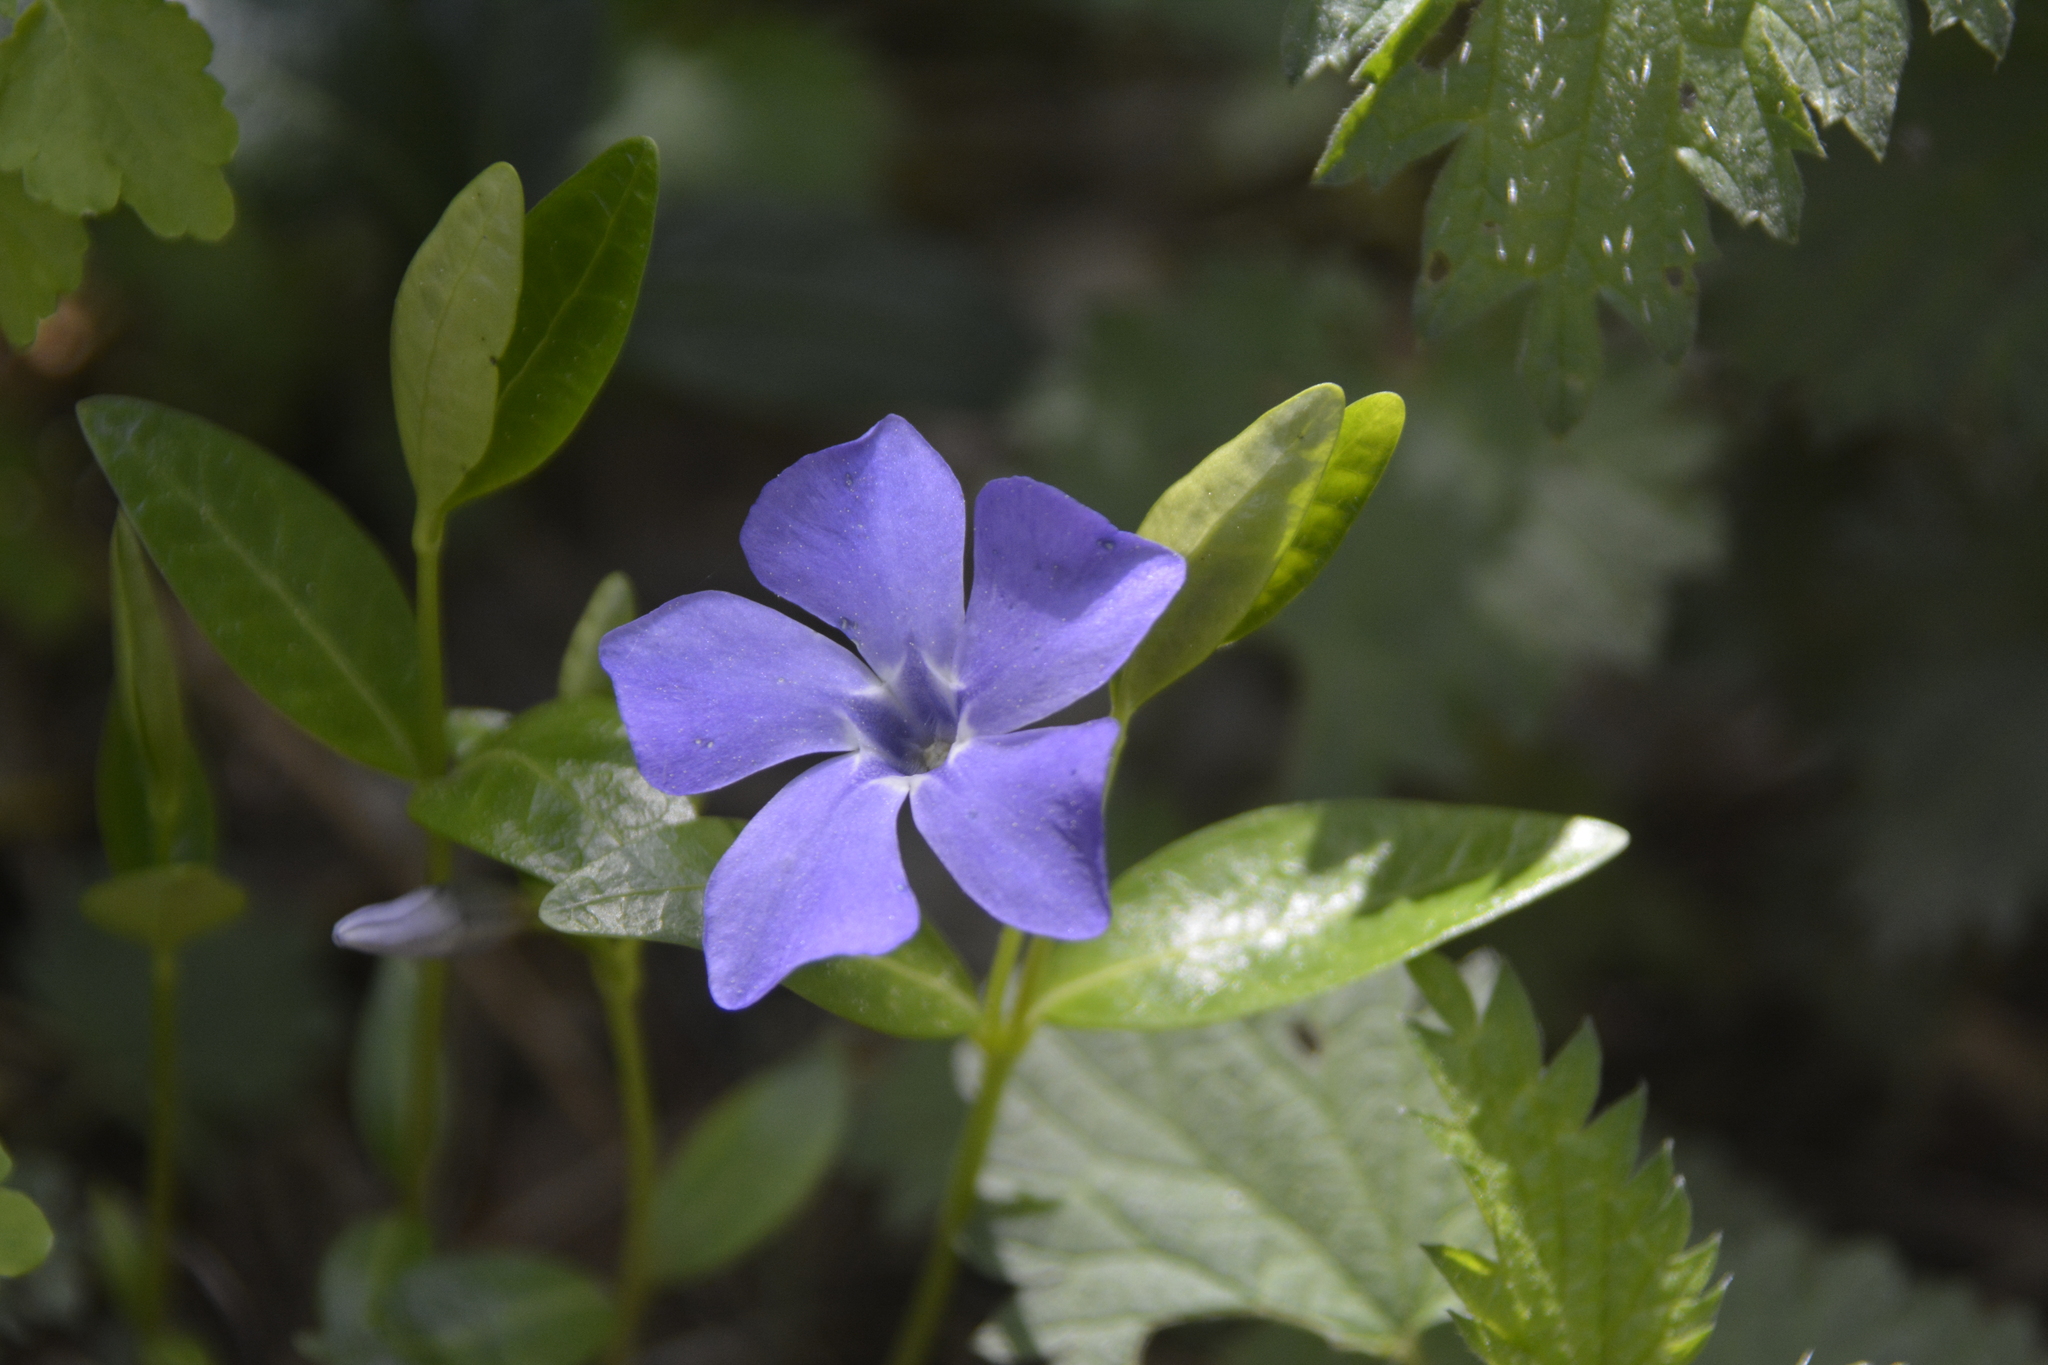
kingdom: Plantae
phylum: Tracheophyta
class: Magnoliopsida
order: Gentianales
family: Apocynaceae
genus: Vinca
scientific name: Vinca minor
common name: Lesser periwinkle
